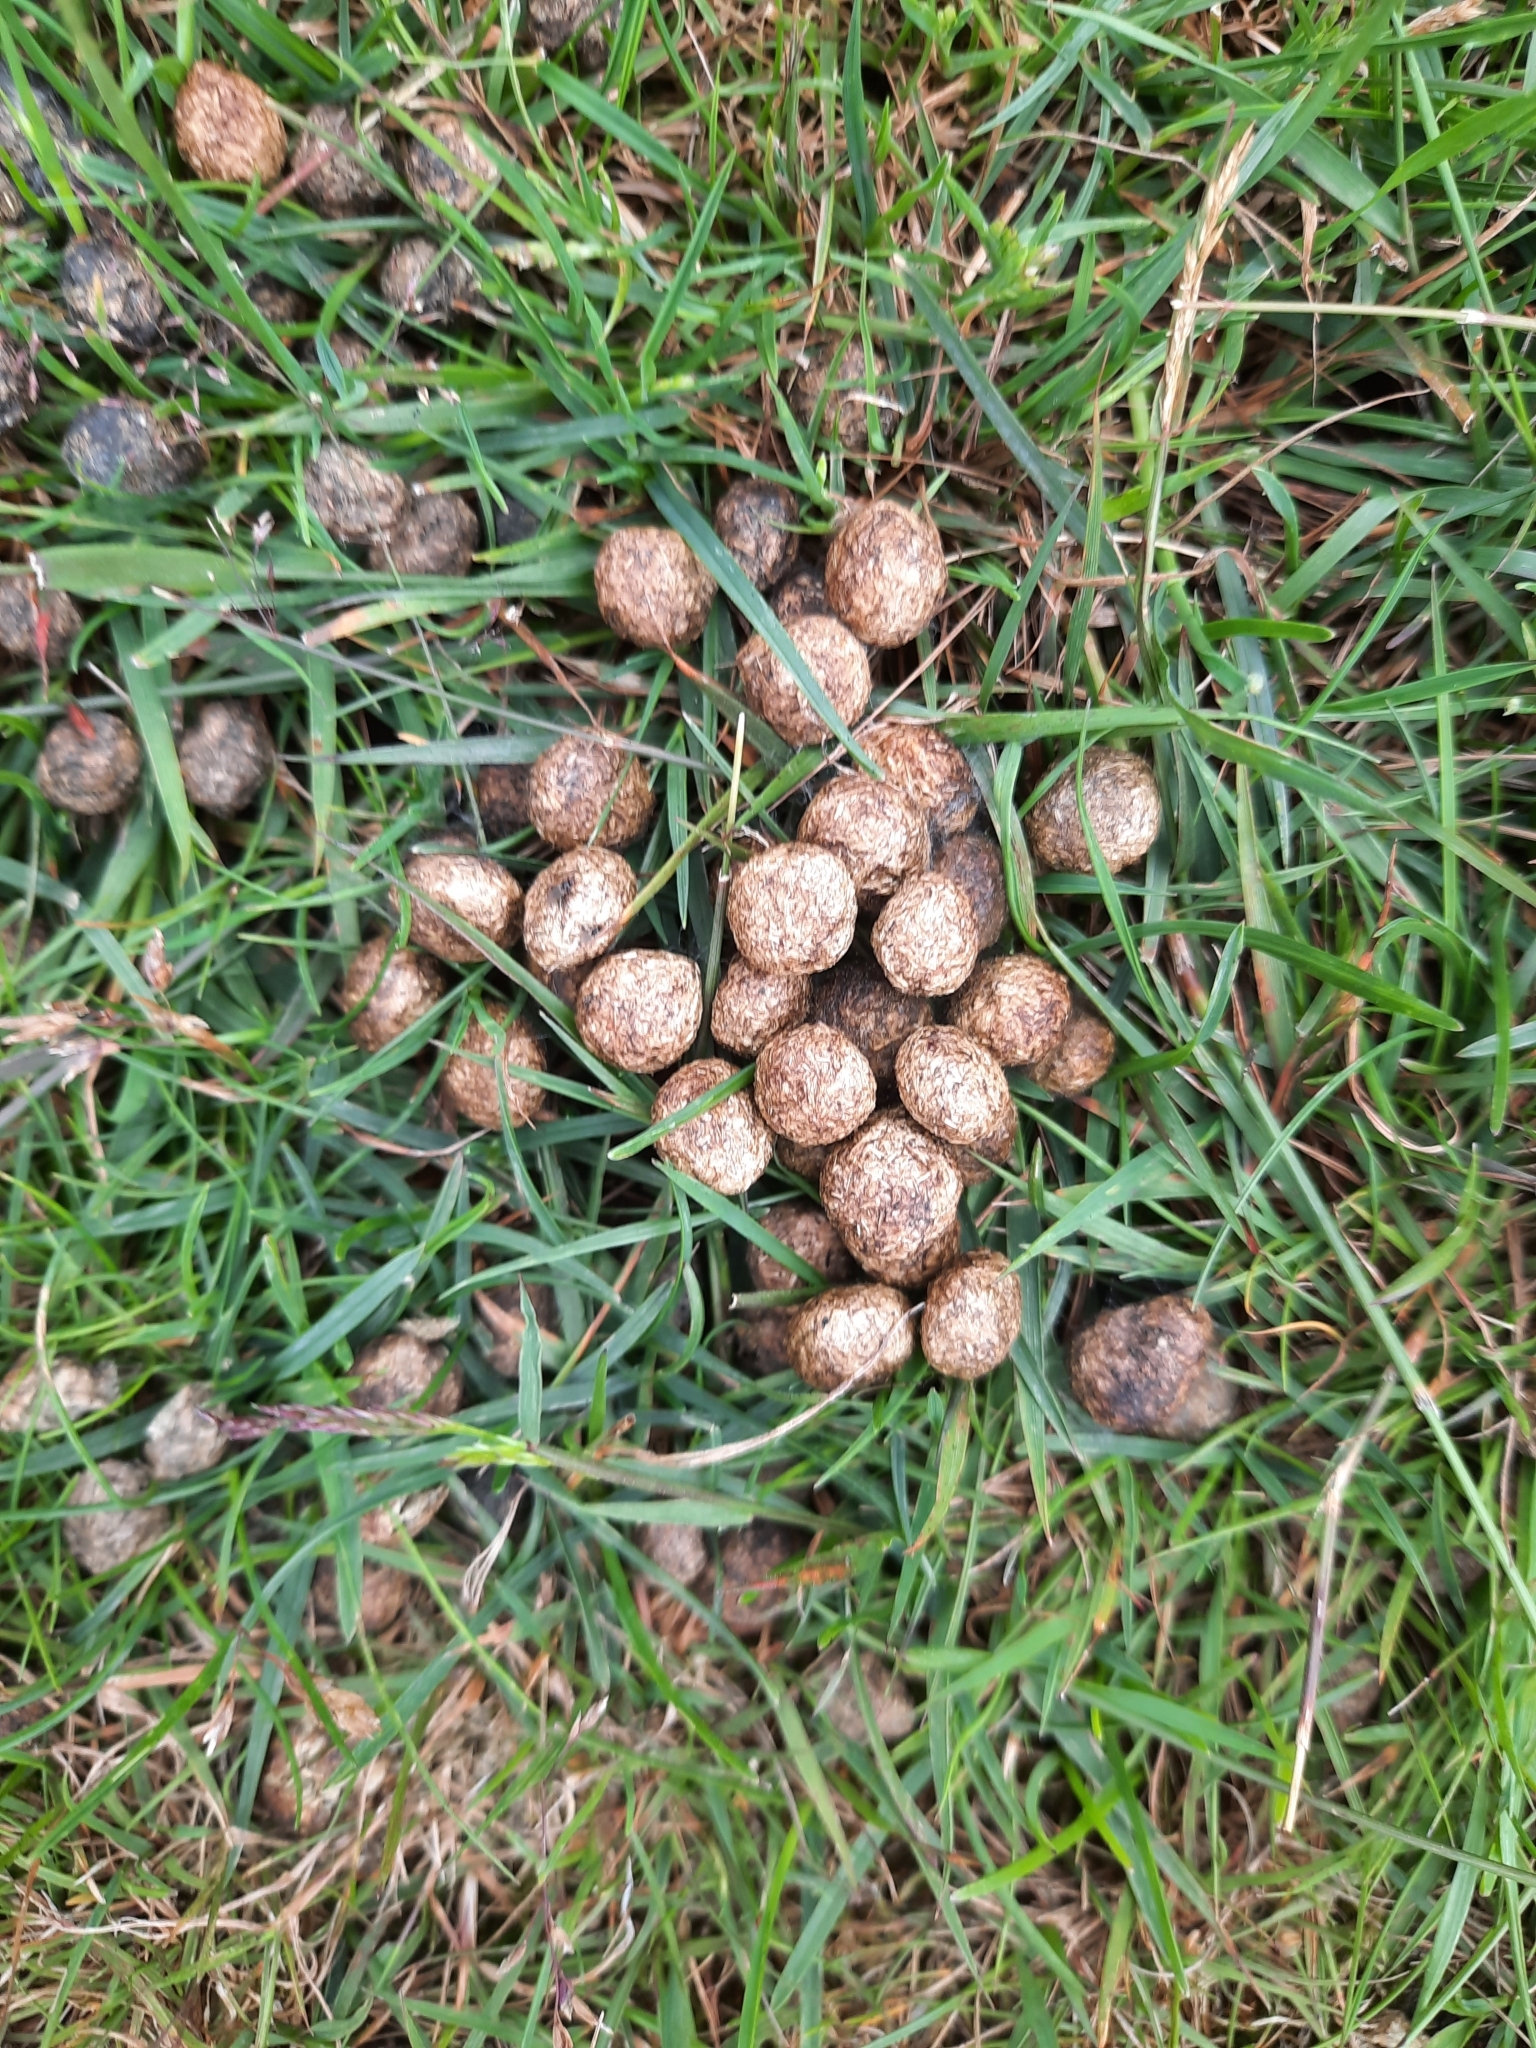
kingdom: Animalia
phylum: Chordata
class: Mammalia
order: Lagomorpha
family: Leporidae
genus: Oryctolagus
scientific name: Oryctolagus cuniculus
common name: European rabbit
